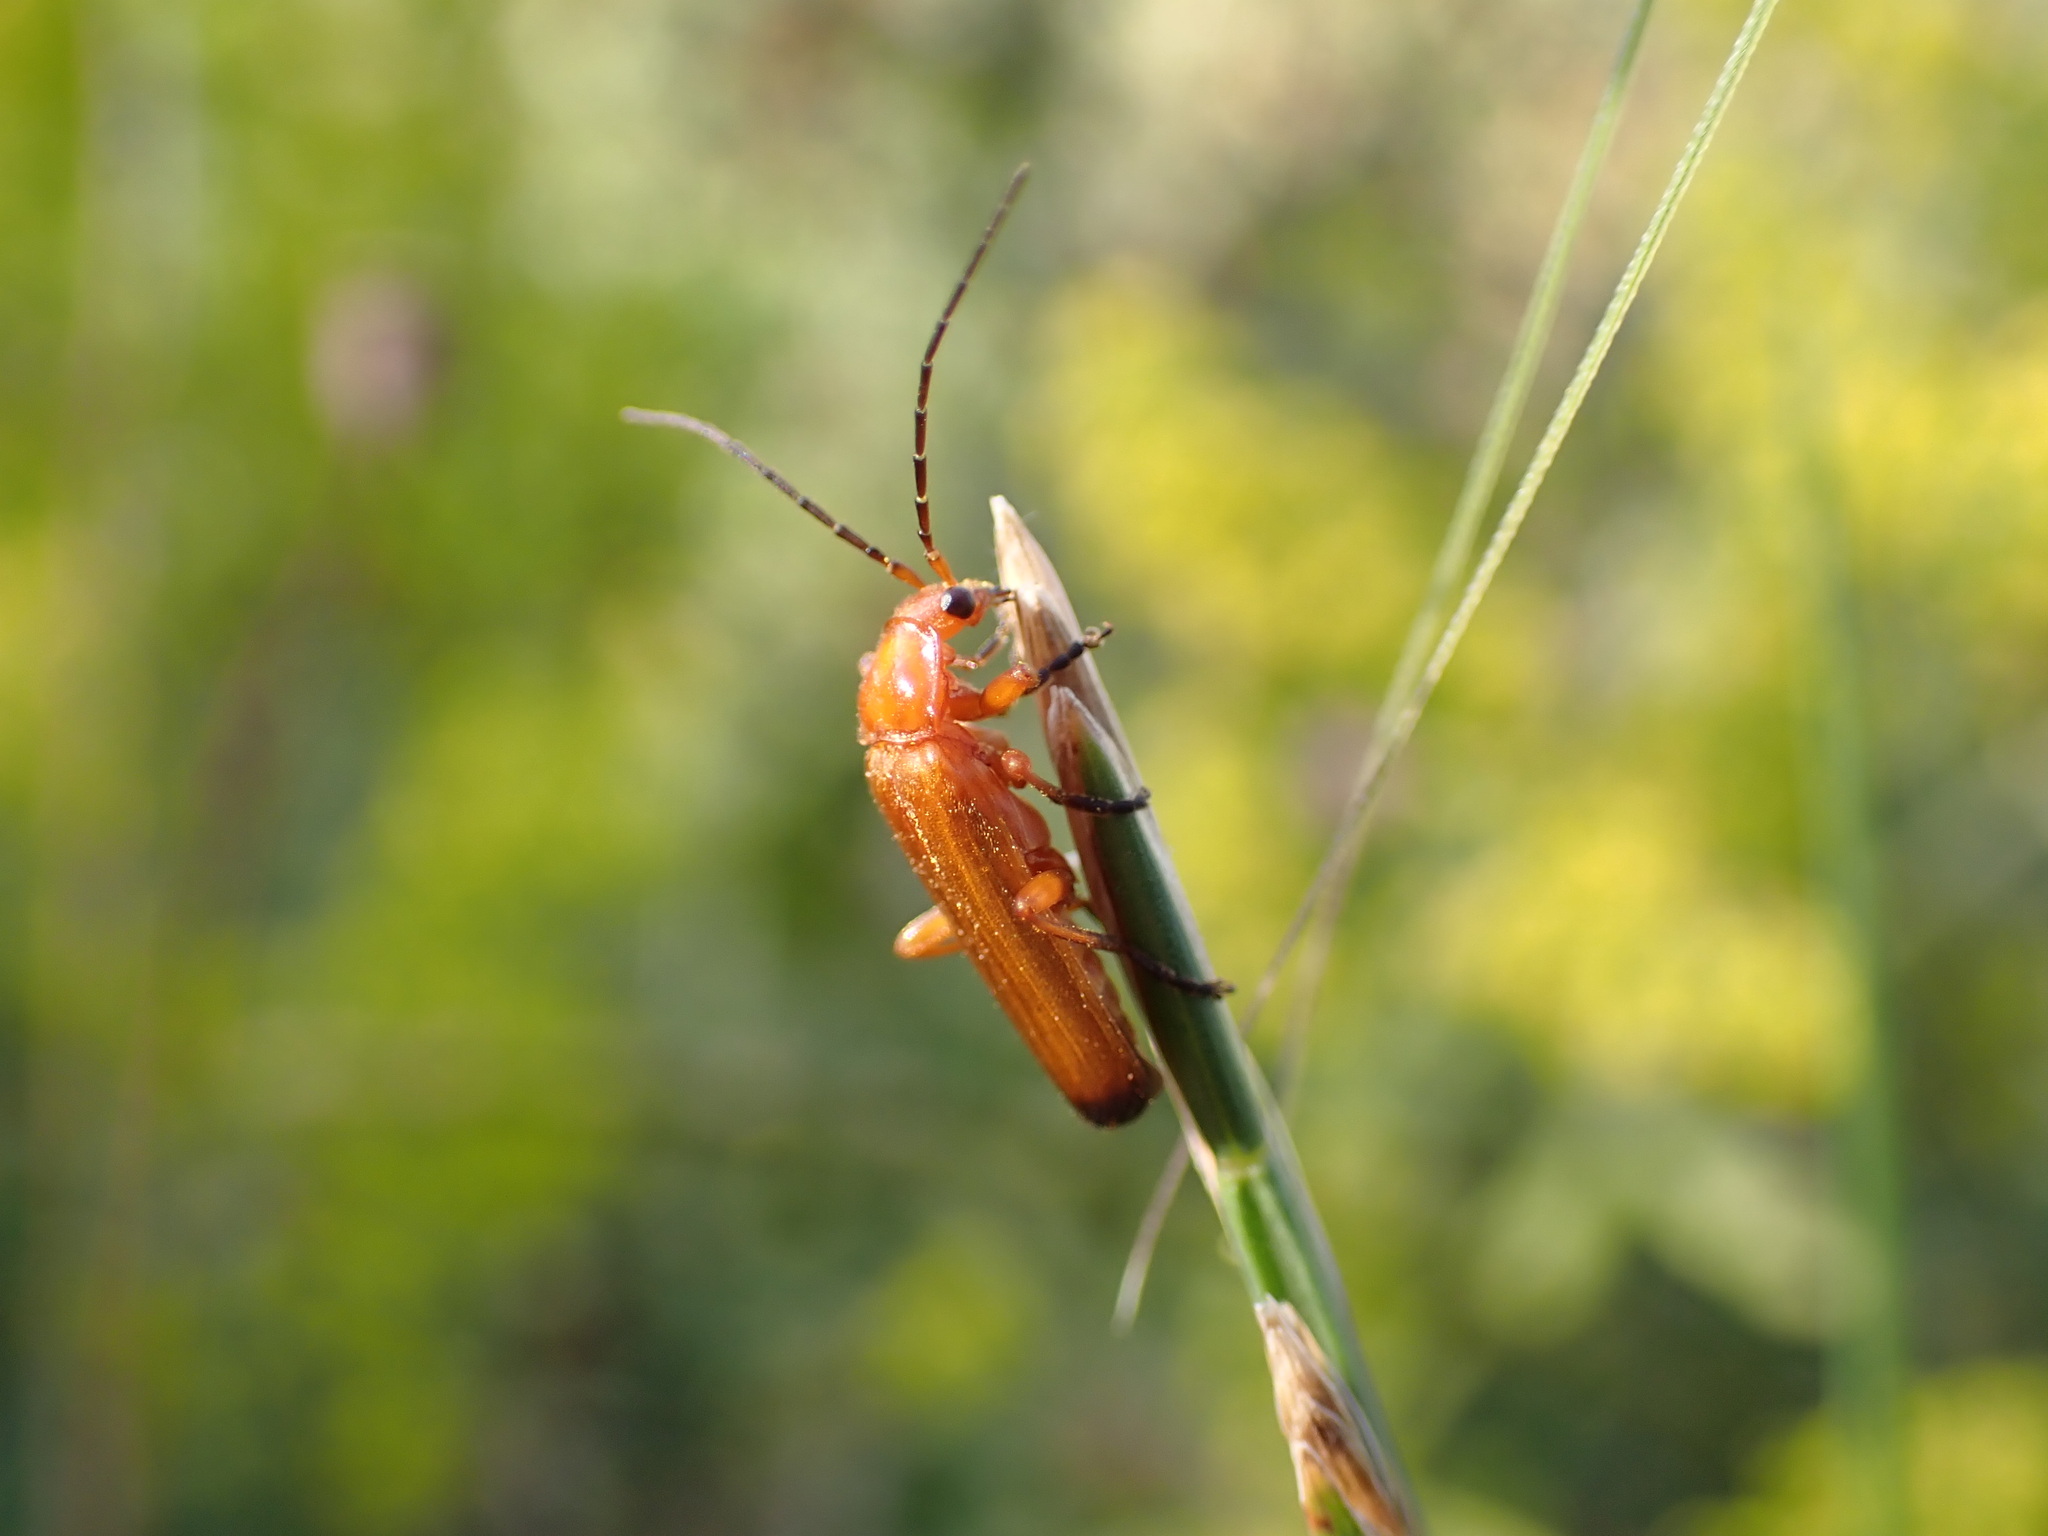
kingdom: Animalia
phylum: Arthropoda
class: Insecta
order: Coleoptera
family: Cantharidae
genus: Rhagonycha
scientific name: Rhagonycha fulva
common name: Common red soldier beetle
